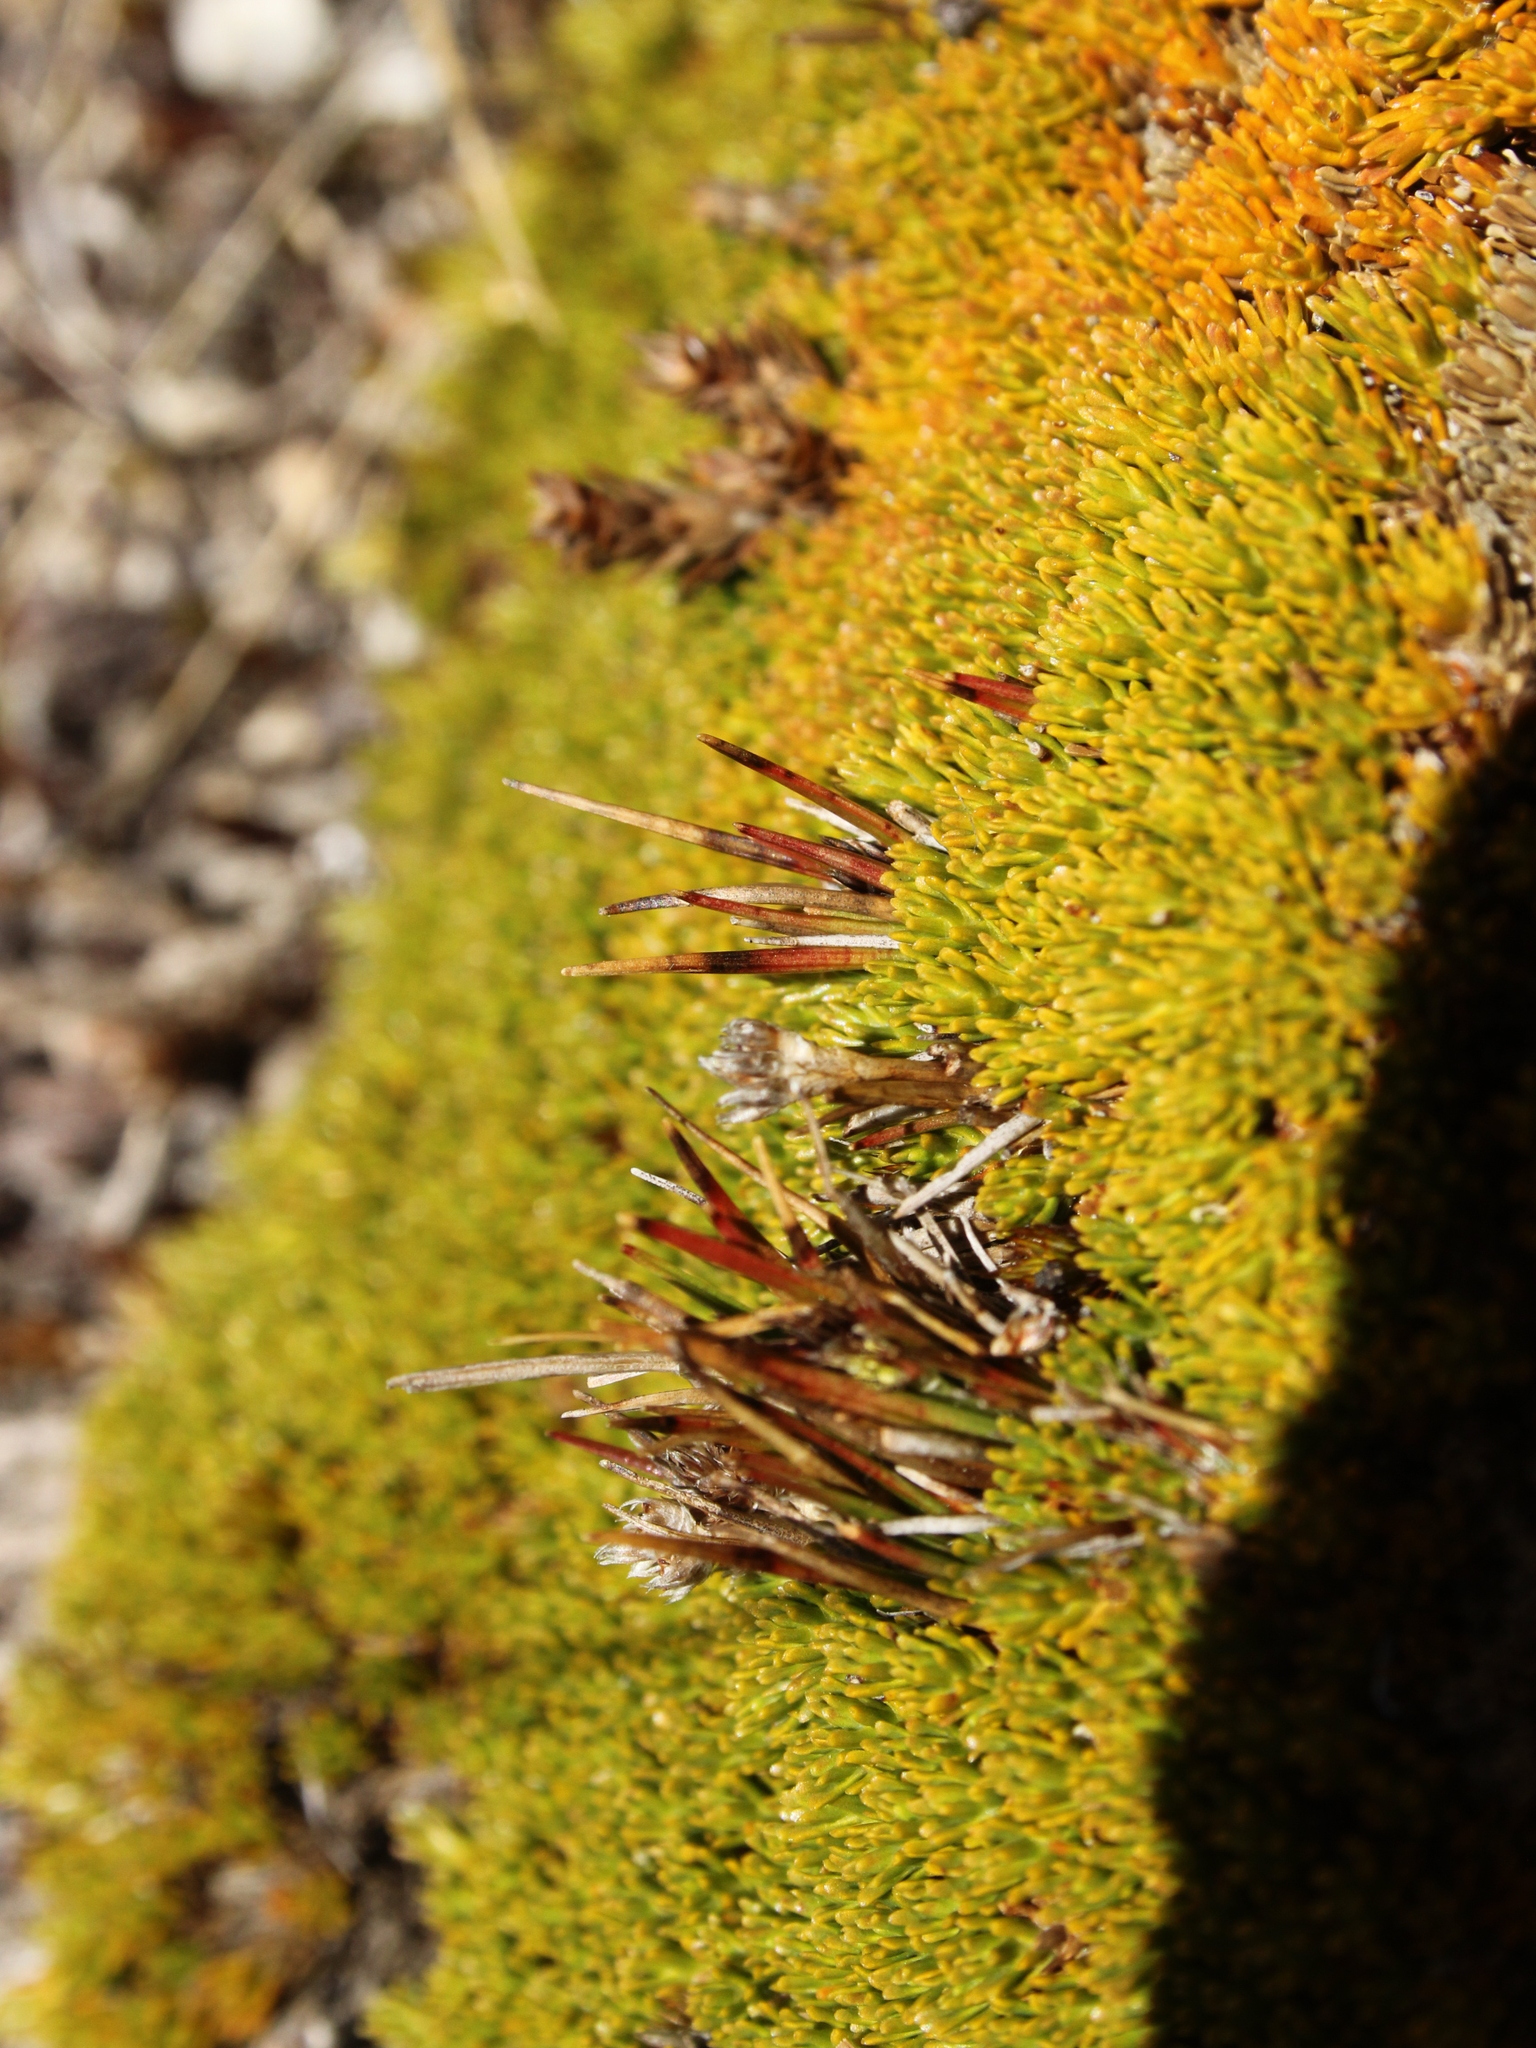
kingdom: Plantae
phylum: Tracheophyta
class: Liliopsida
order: Poales
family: Juncaceae
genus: Luzula
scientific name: Luzula pumila
